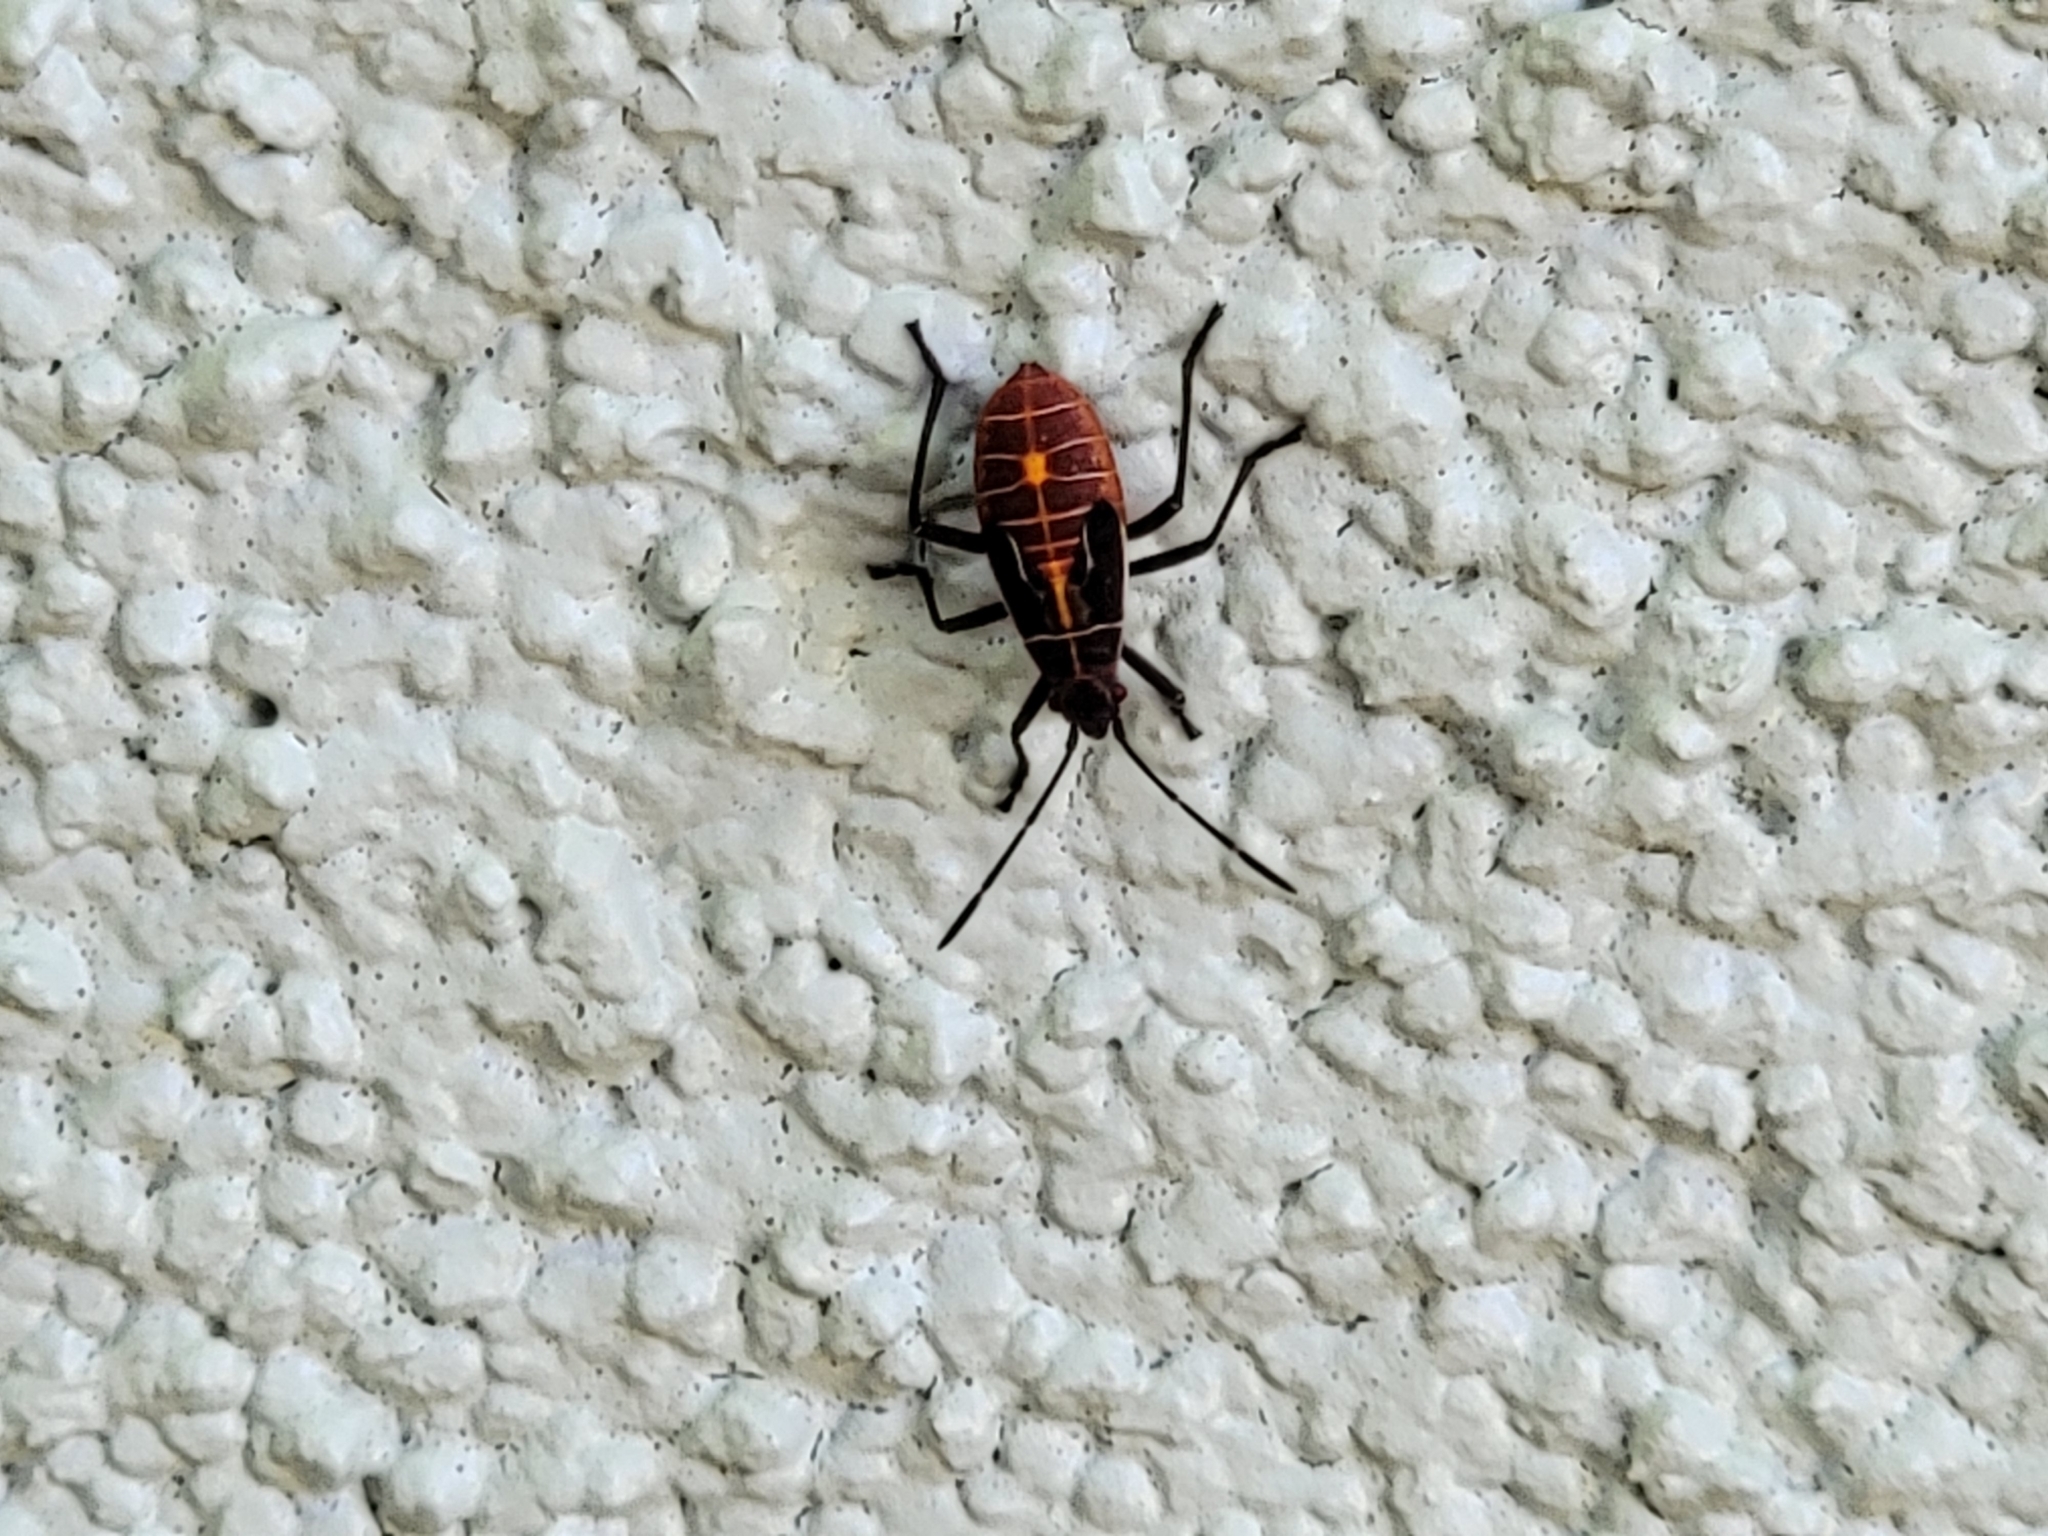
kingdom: Animalia
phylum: Arthropoda
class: Insecta
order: Hemiptera
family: Rhopalidae
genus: Boisea
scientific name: Boisea rubrolineata
